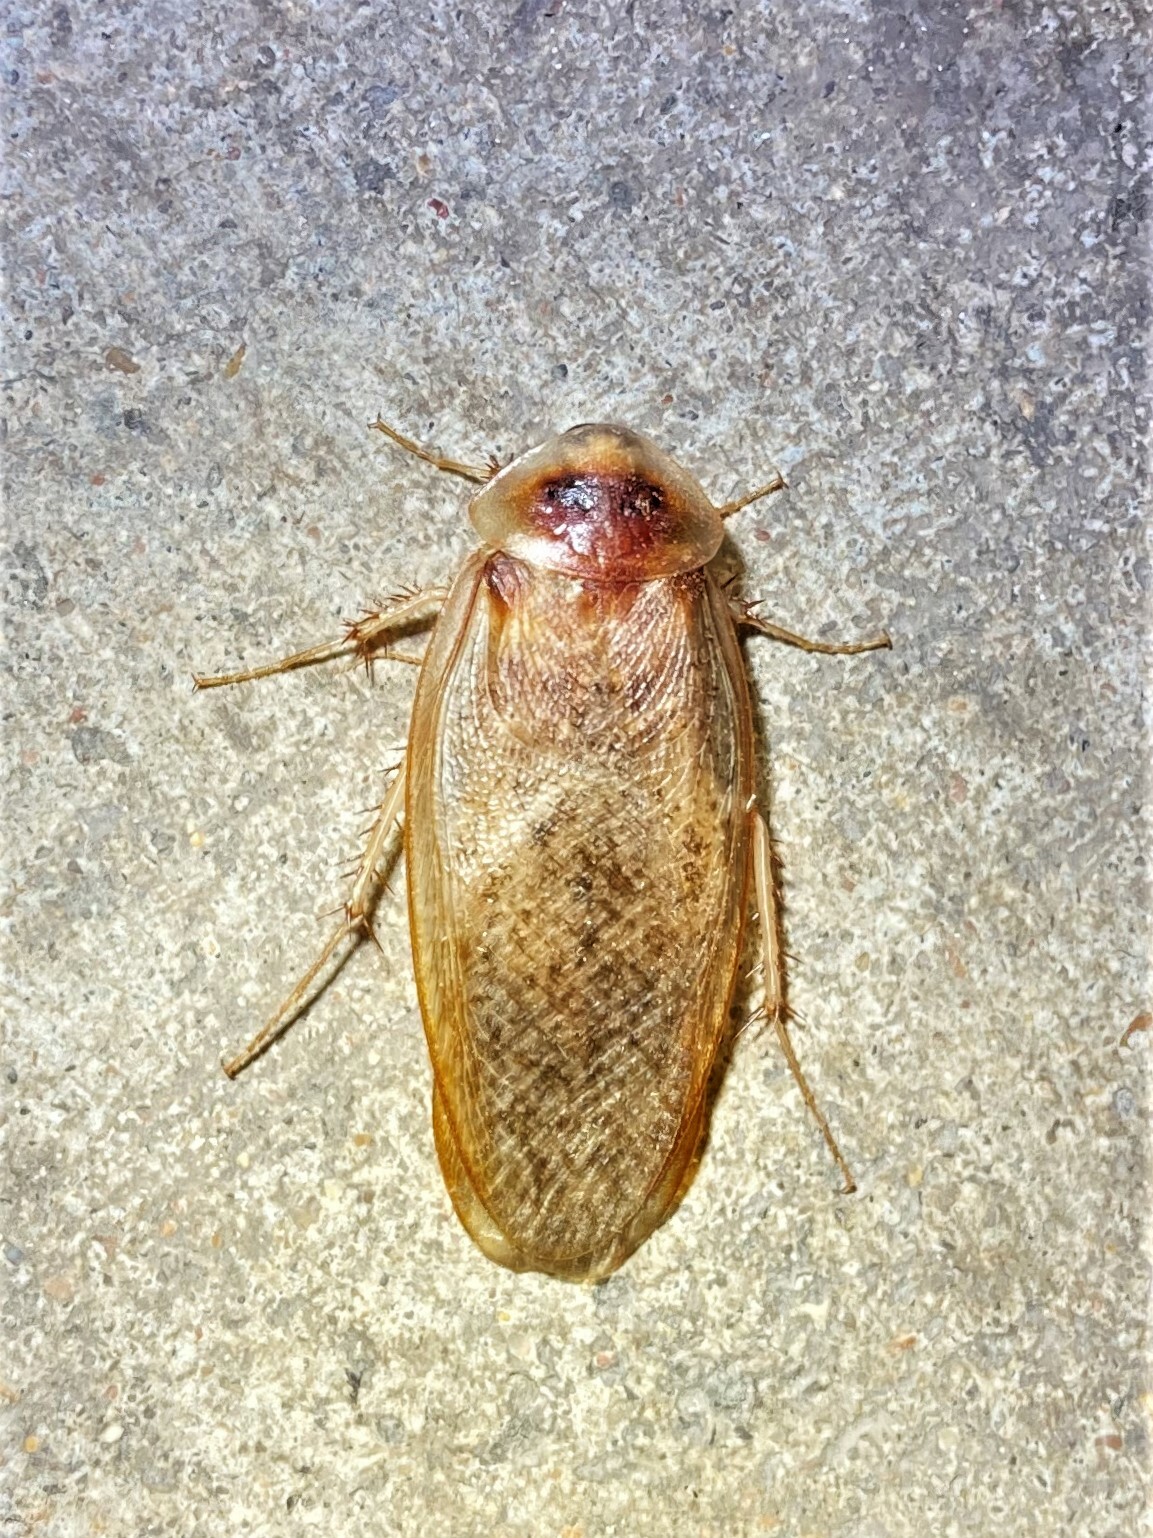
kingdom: Animalia
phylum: Arthropoda
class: Insecta
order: Blattodea
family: Corydiidae
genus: Arenivaga
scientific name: Arenivaga bolliana
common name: Boll's sand cockroach
